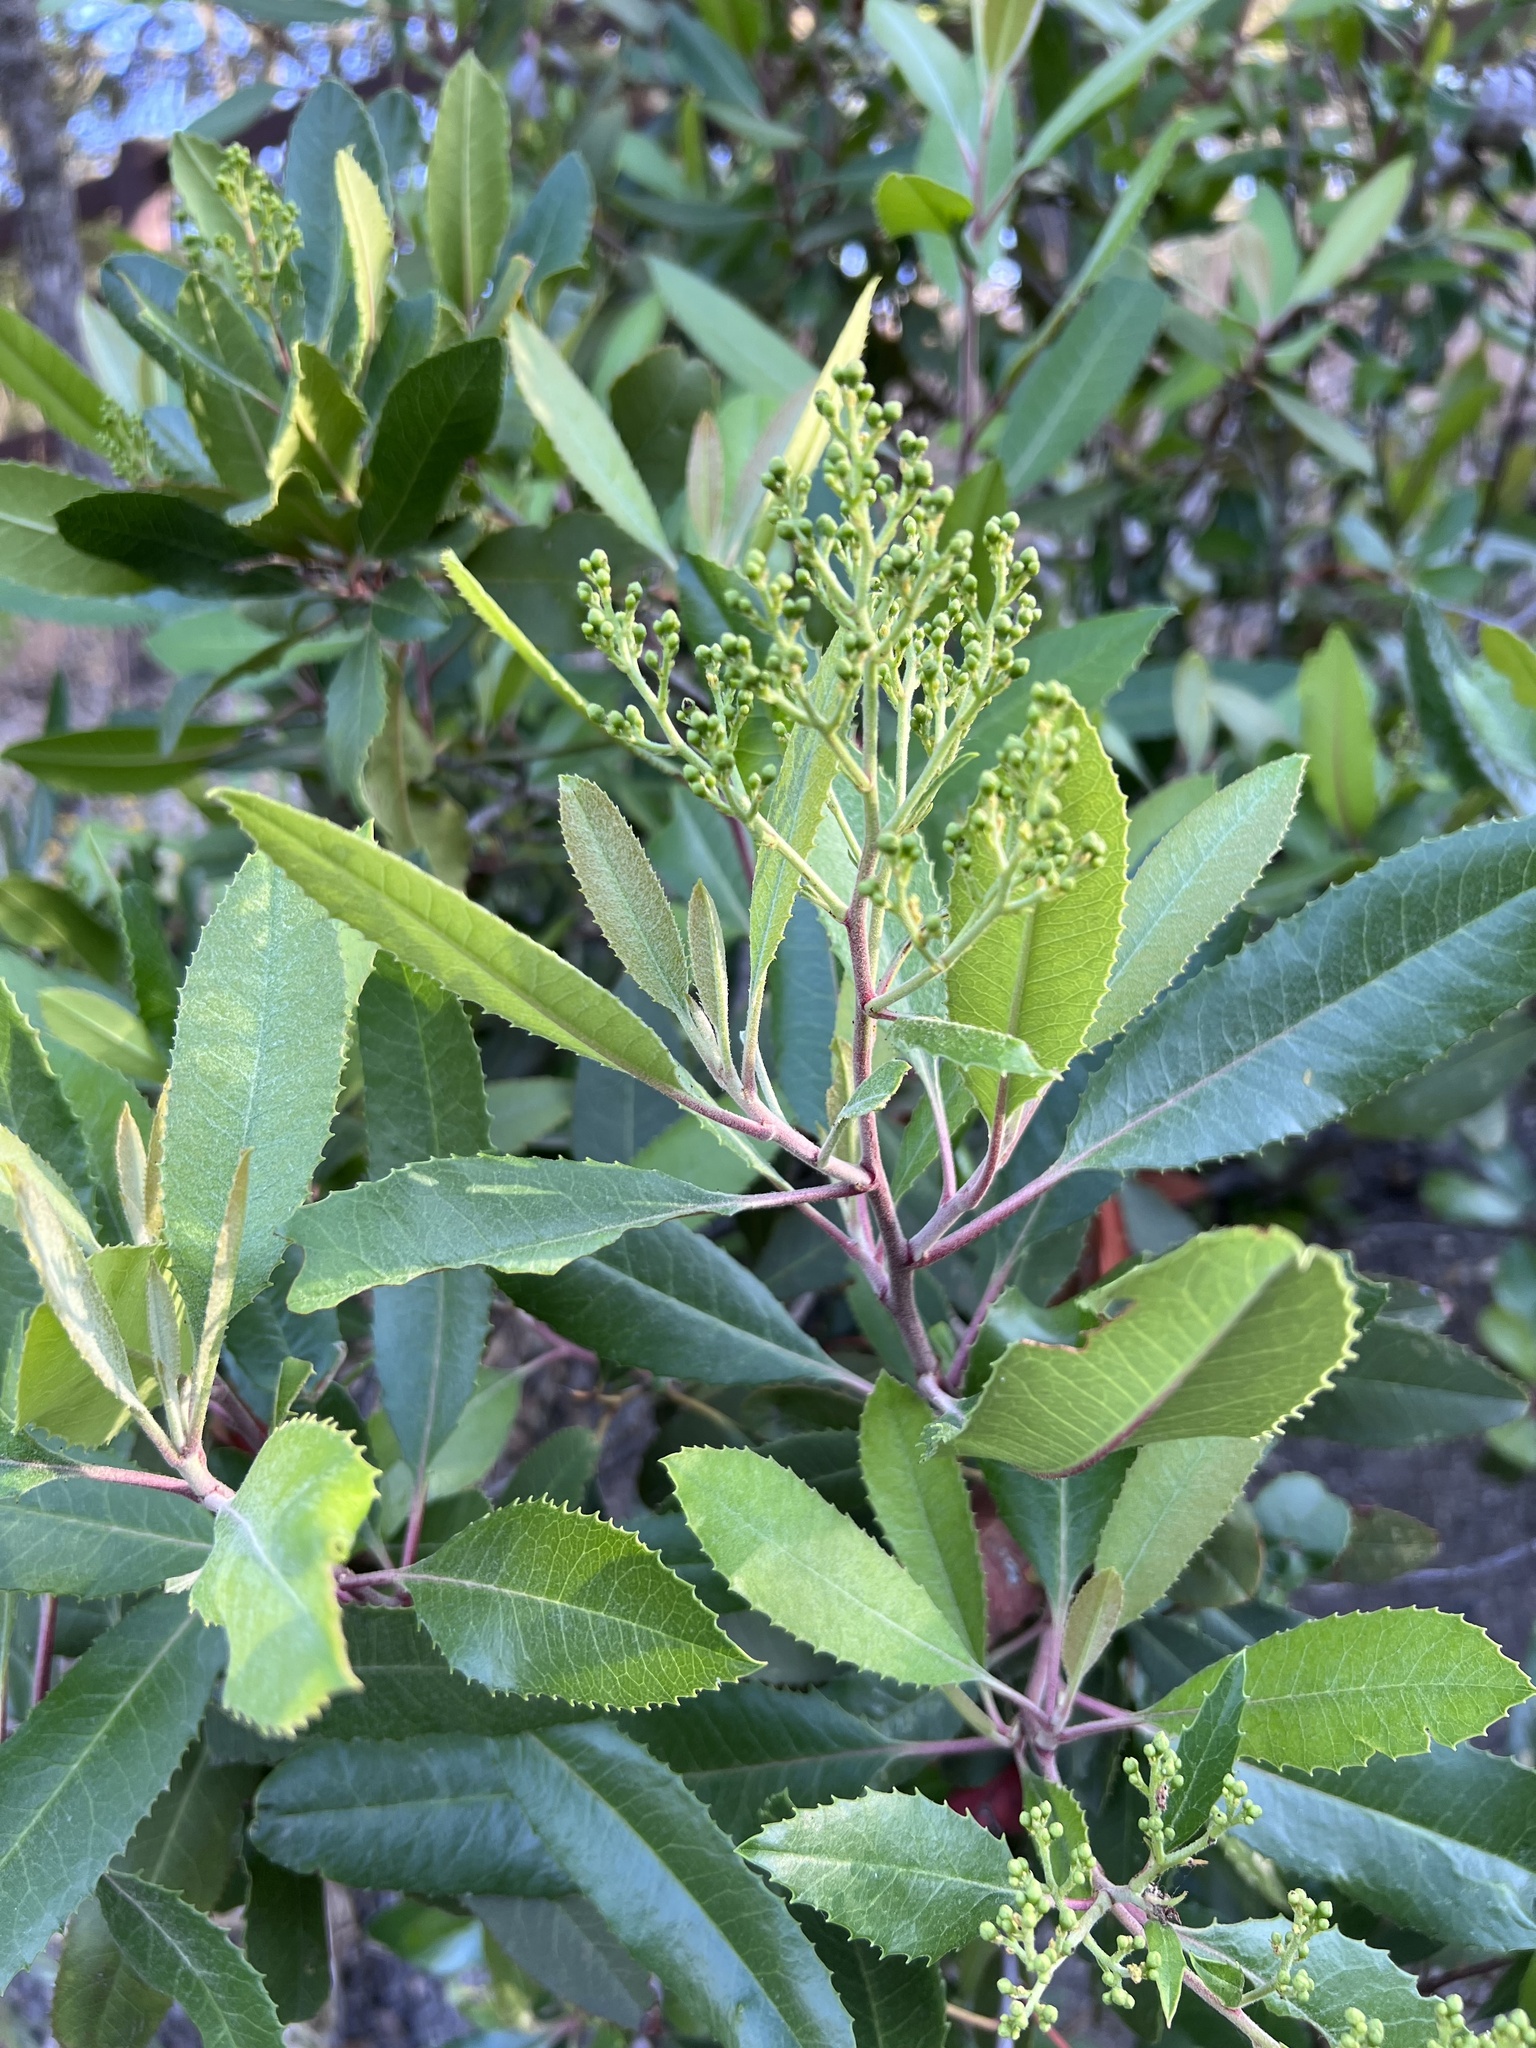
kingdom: Plantae
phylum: Tracheophyta
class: Magnoliopsida
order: Rosales
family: Rosaceae
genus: Heteromeles
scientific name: Heteromeles arbutifolia
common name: California-holly
